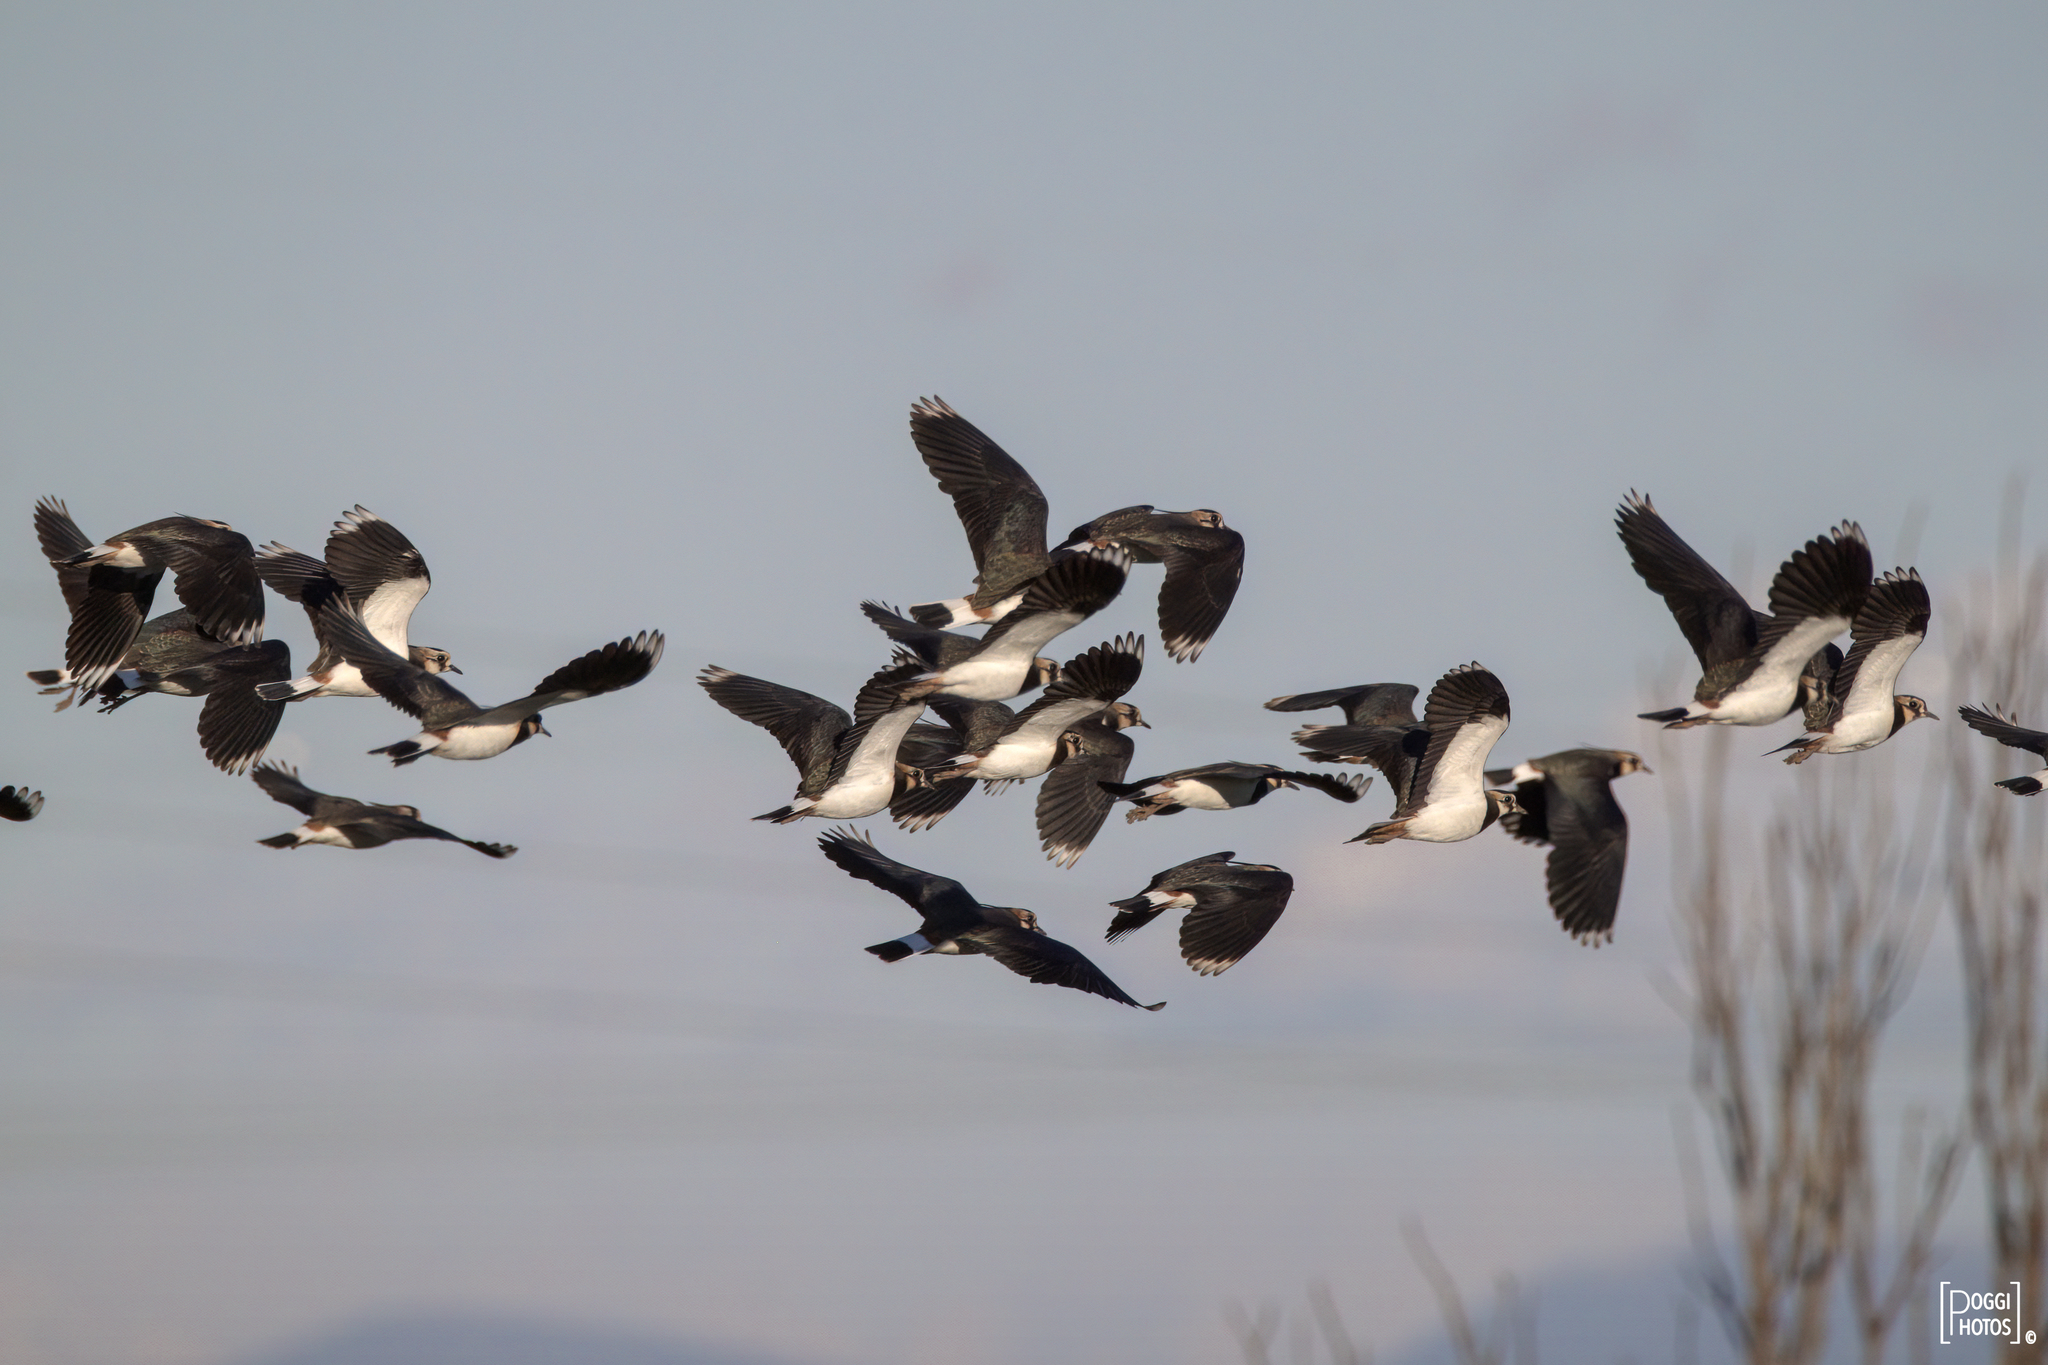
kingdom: Animalia
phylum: Chordata
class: Aves
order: Charadriiformes
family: Charadriidae
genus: Vanellus
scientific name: Vanellus vanellus
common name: Northern lapwing
